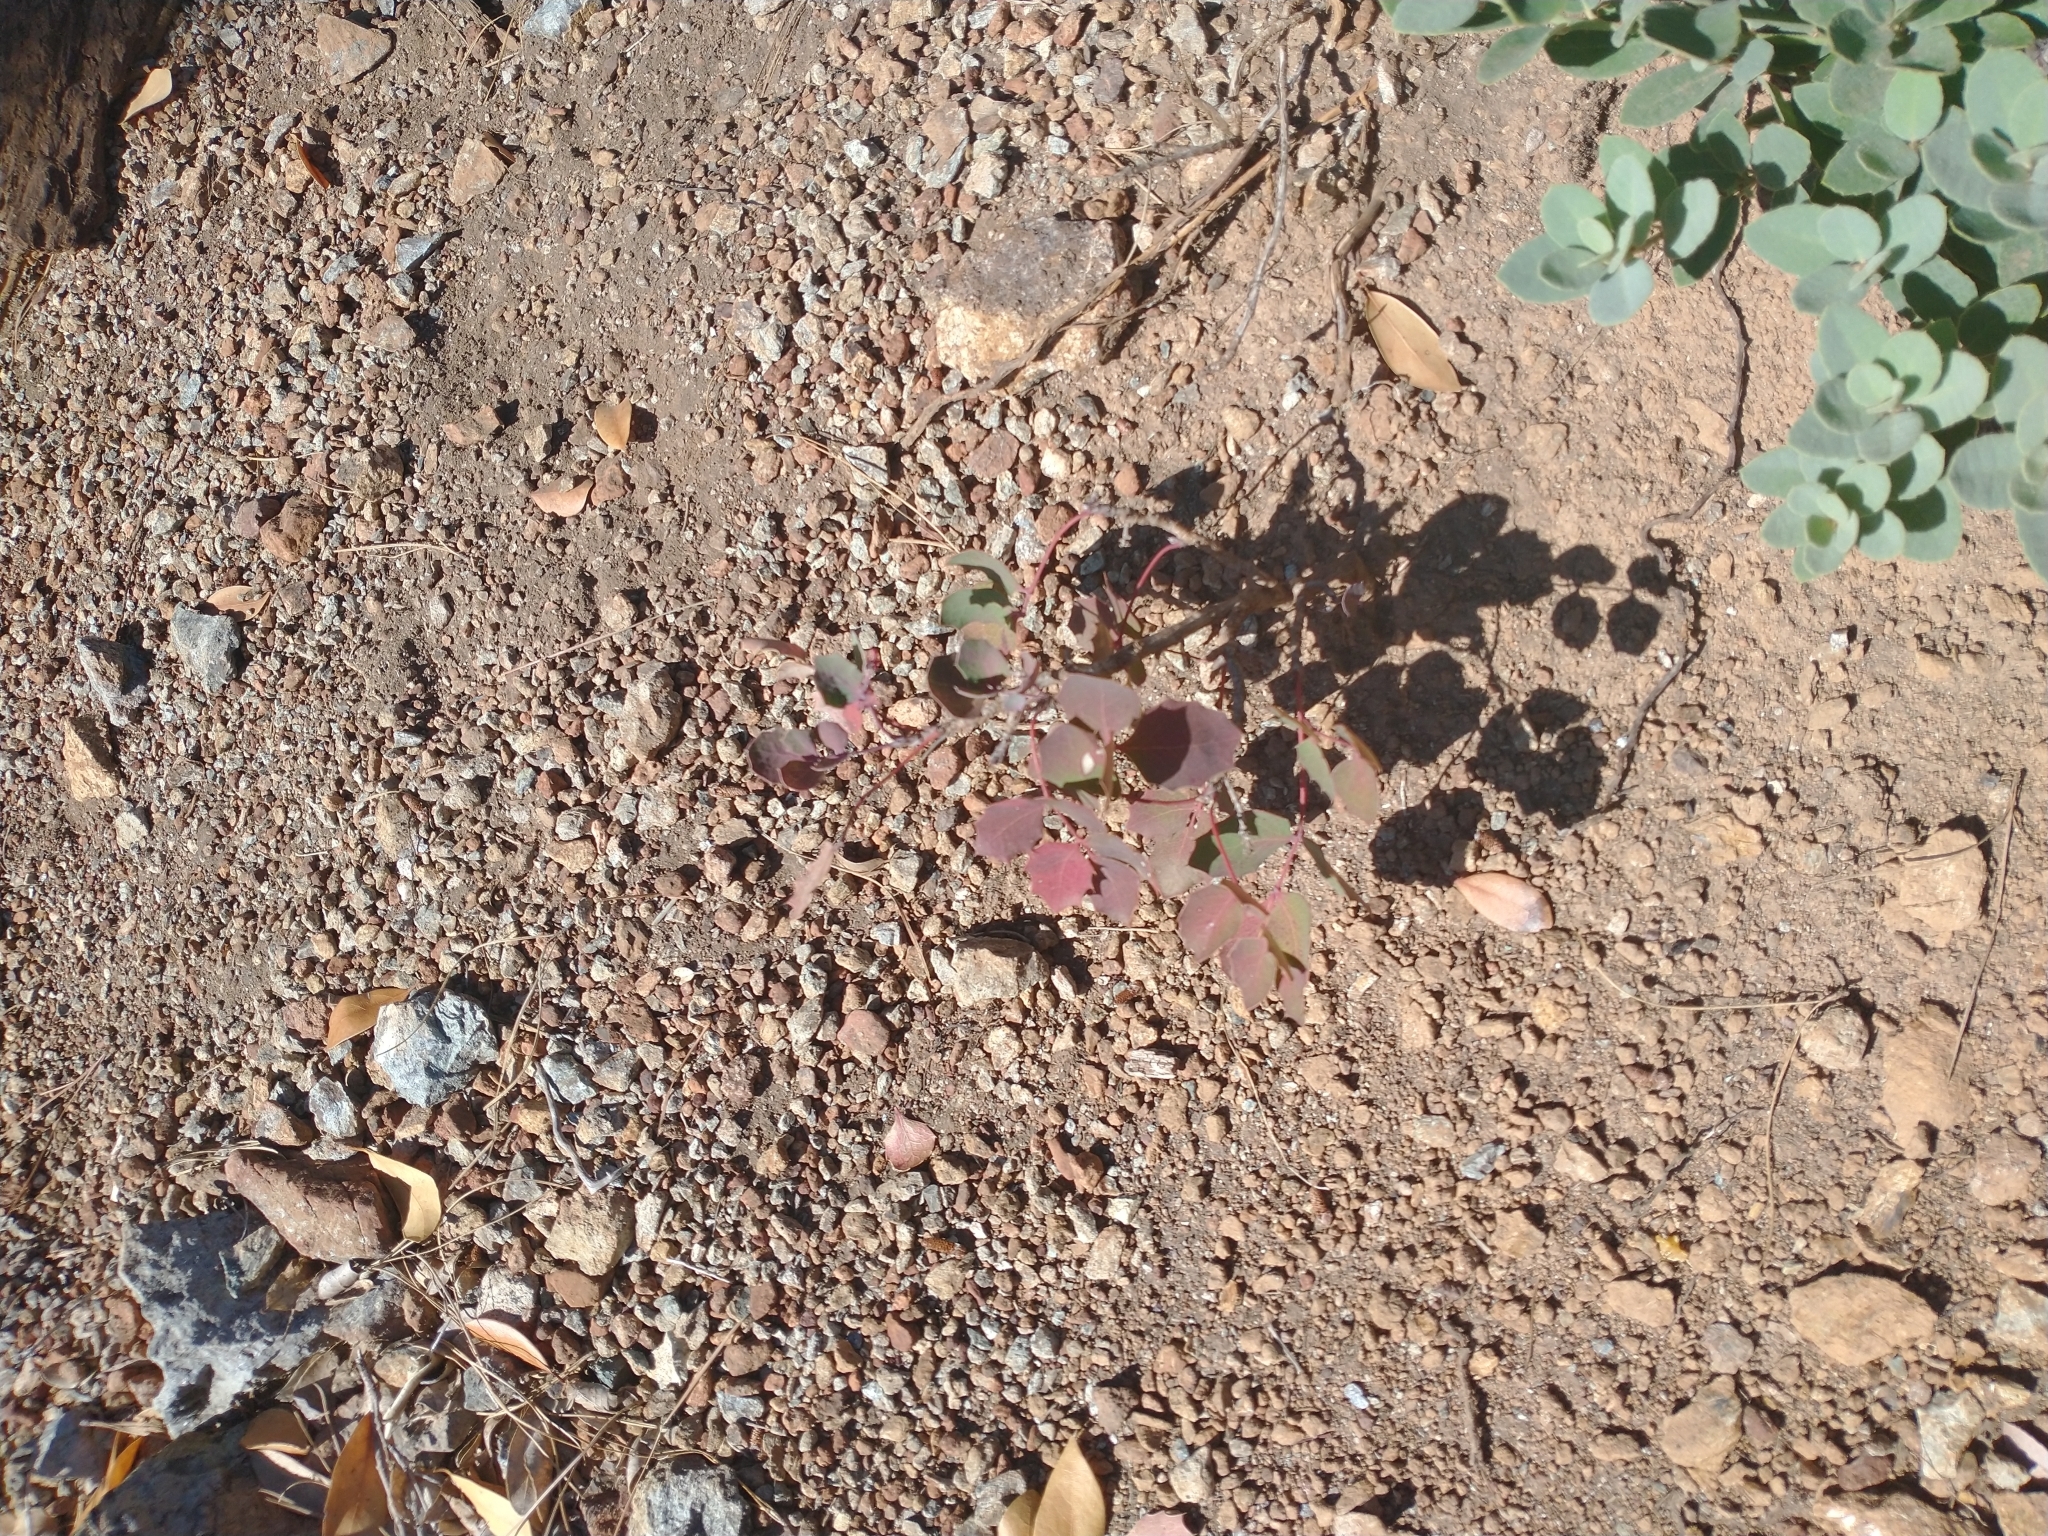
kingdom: Plantae
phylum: Tracheophyta
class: Magnoliopsida
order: Ranunculales
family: Berberidaceae
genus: Mahonia
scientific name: Mahonia repens
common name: Creeping oregon-grape
